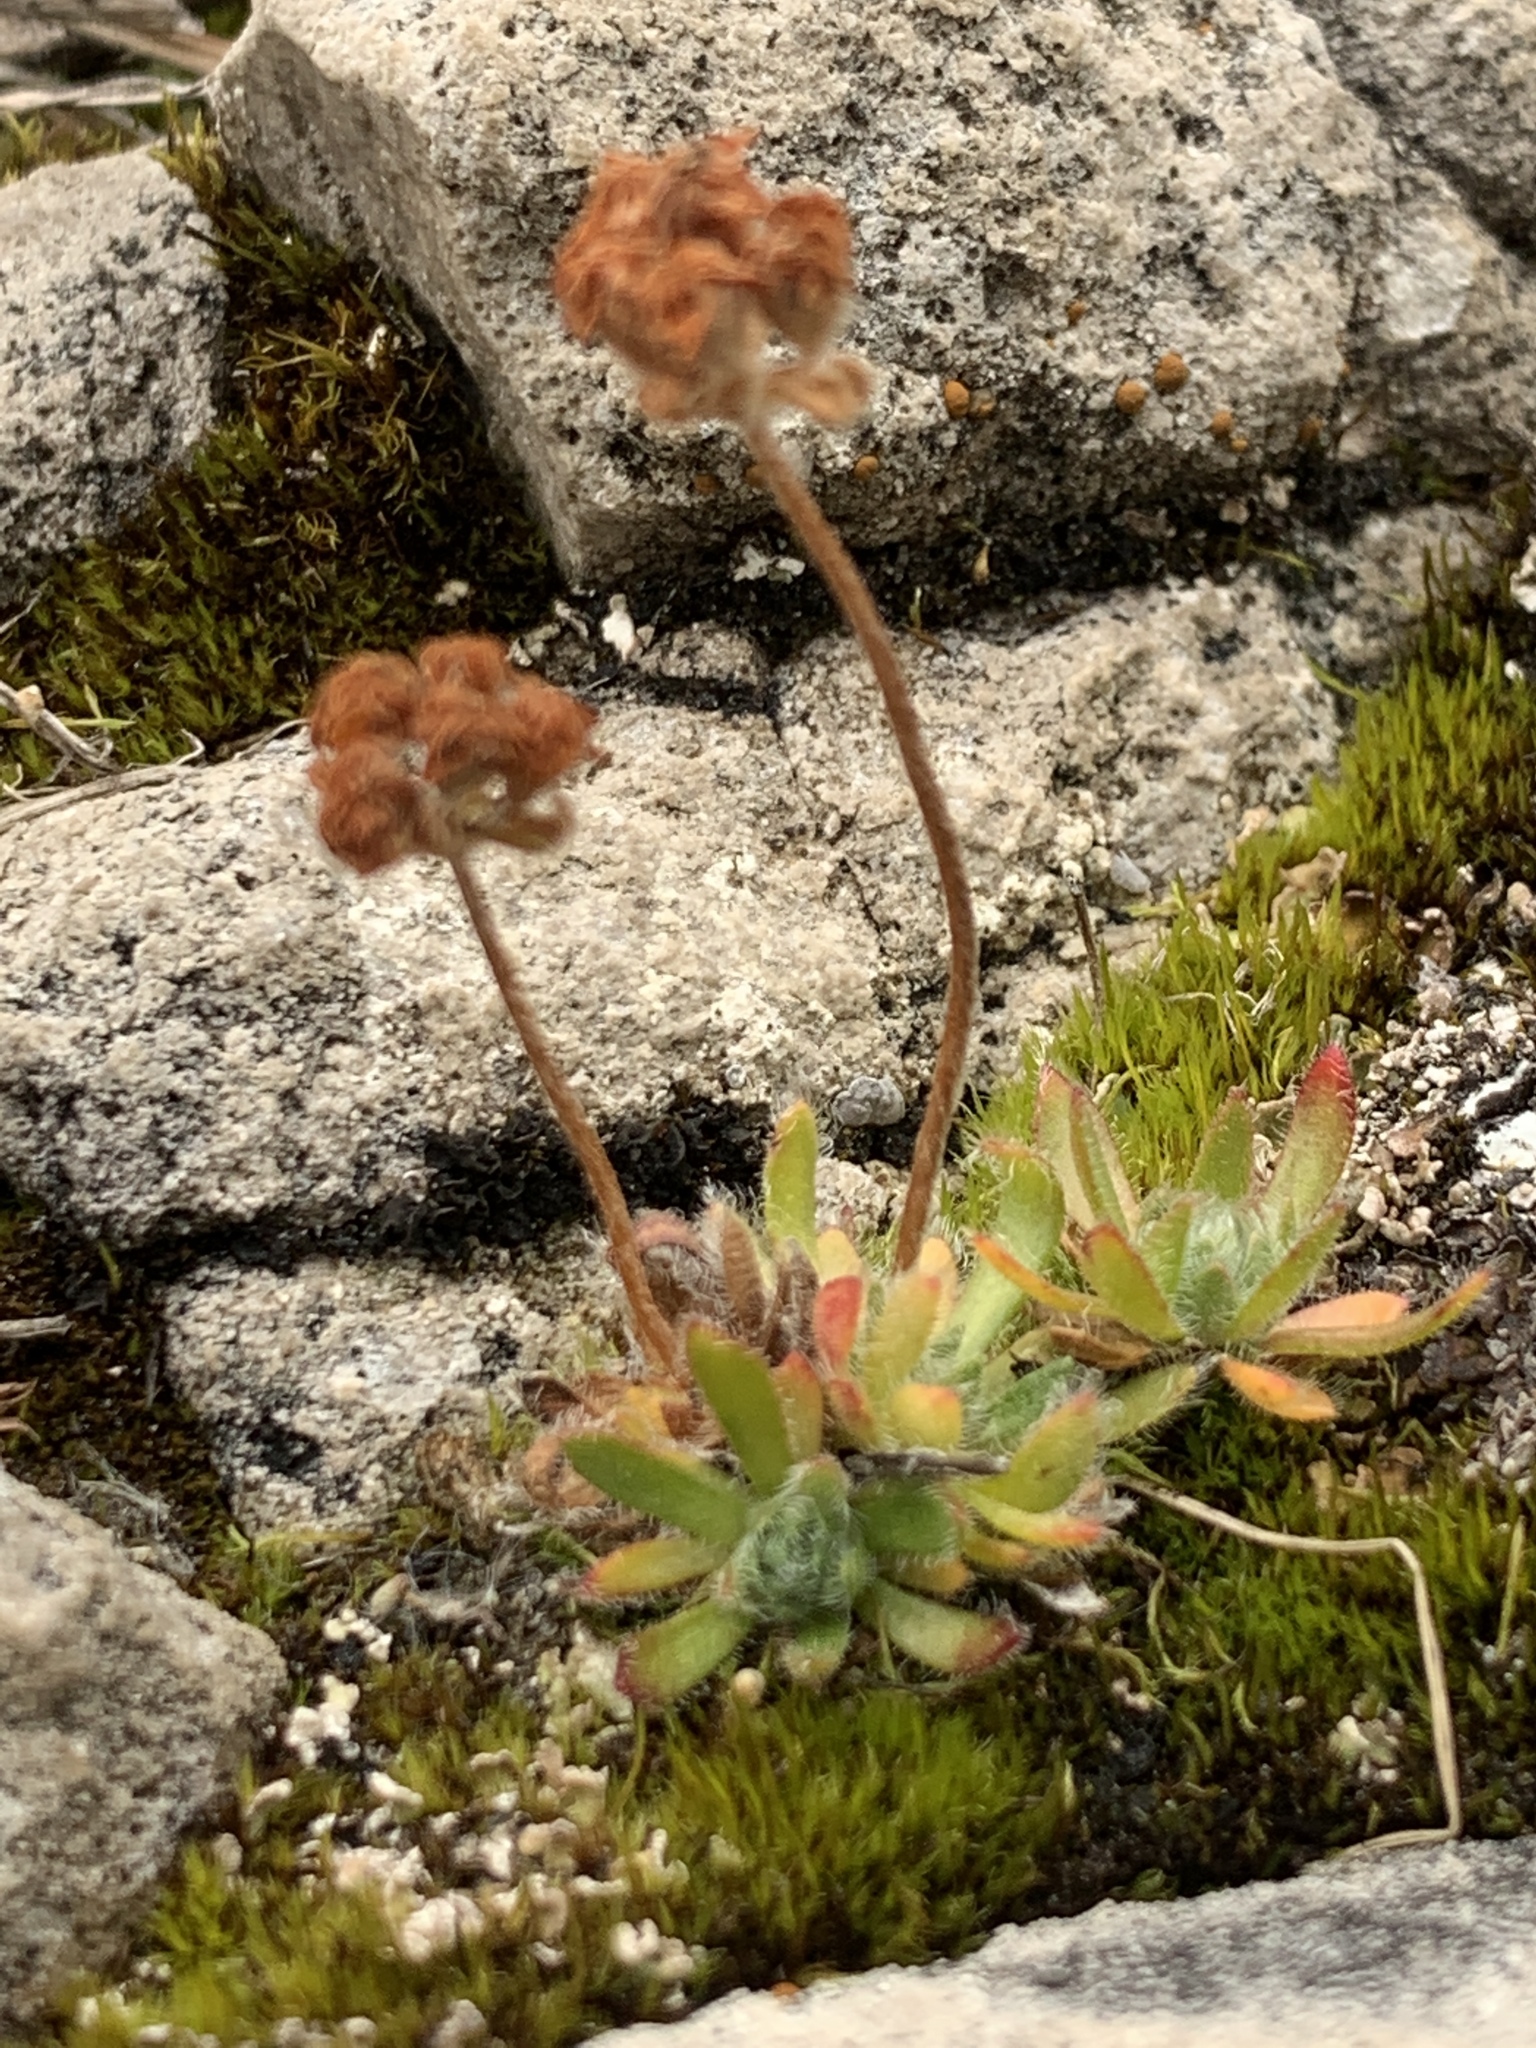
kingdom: Plantae
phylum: Tracheophyta
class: Magnoliopsida
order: Ericales
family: Primulaceae
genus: Androsace
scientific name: Androsace chamaejasme
